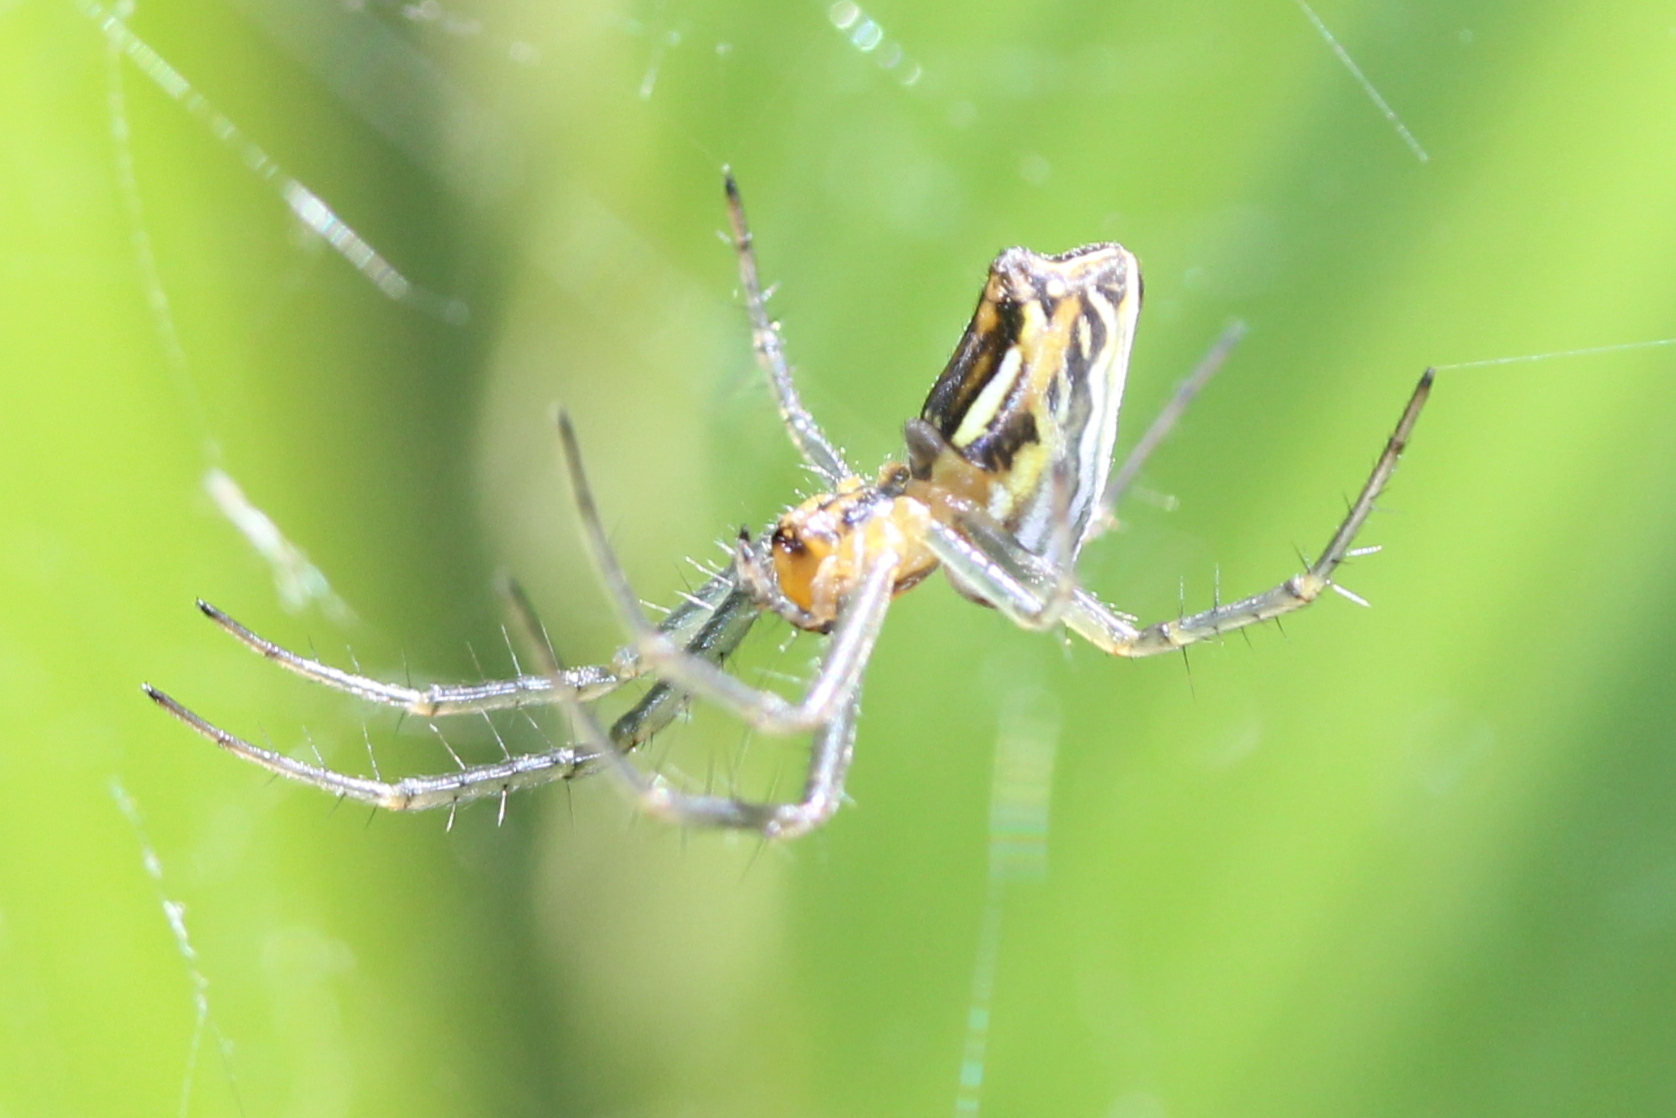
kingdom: Animalia
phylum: Arthropoda
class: Arachnida
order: Araneae
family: Araneidae
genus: Mecynogea
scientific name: Mecynogea lemniscata
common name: Orb weavers
